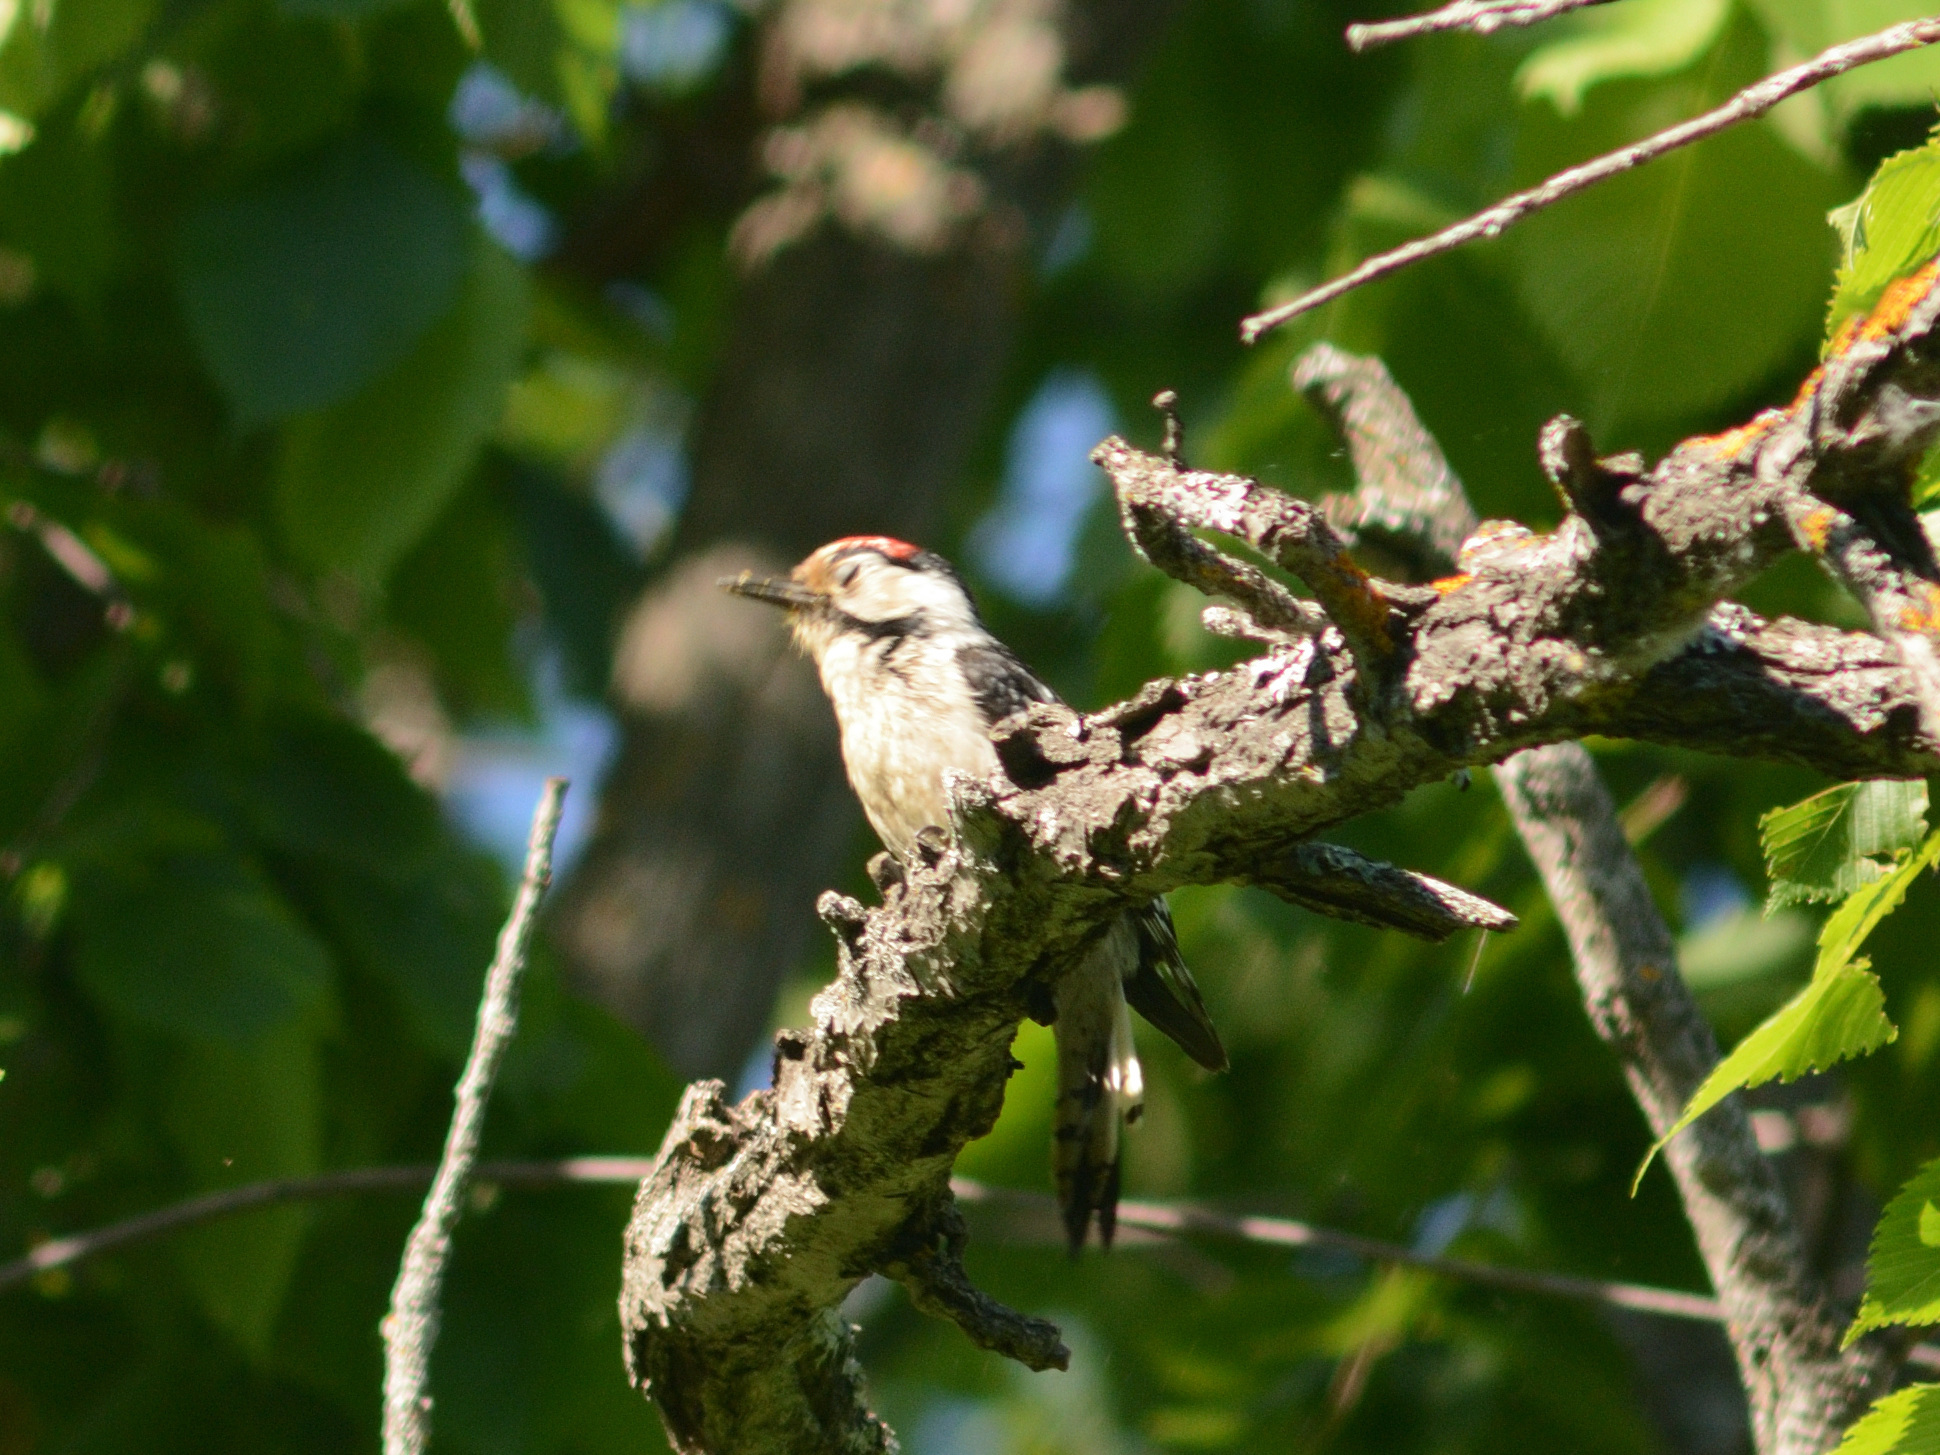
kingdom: Animalia
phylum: Chordata
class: Aves
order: Piciformes
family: Picidae
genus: Dryobates
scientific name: Dryobates minor
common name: Lesser spotted woodpecker
